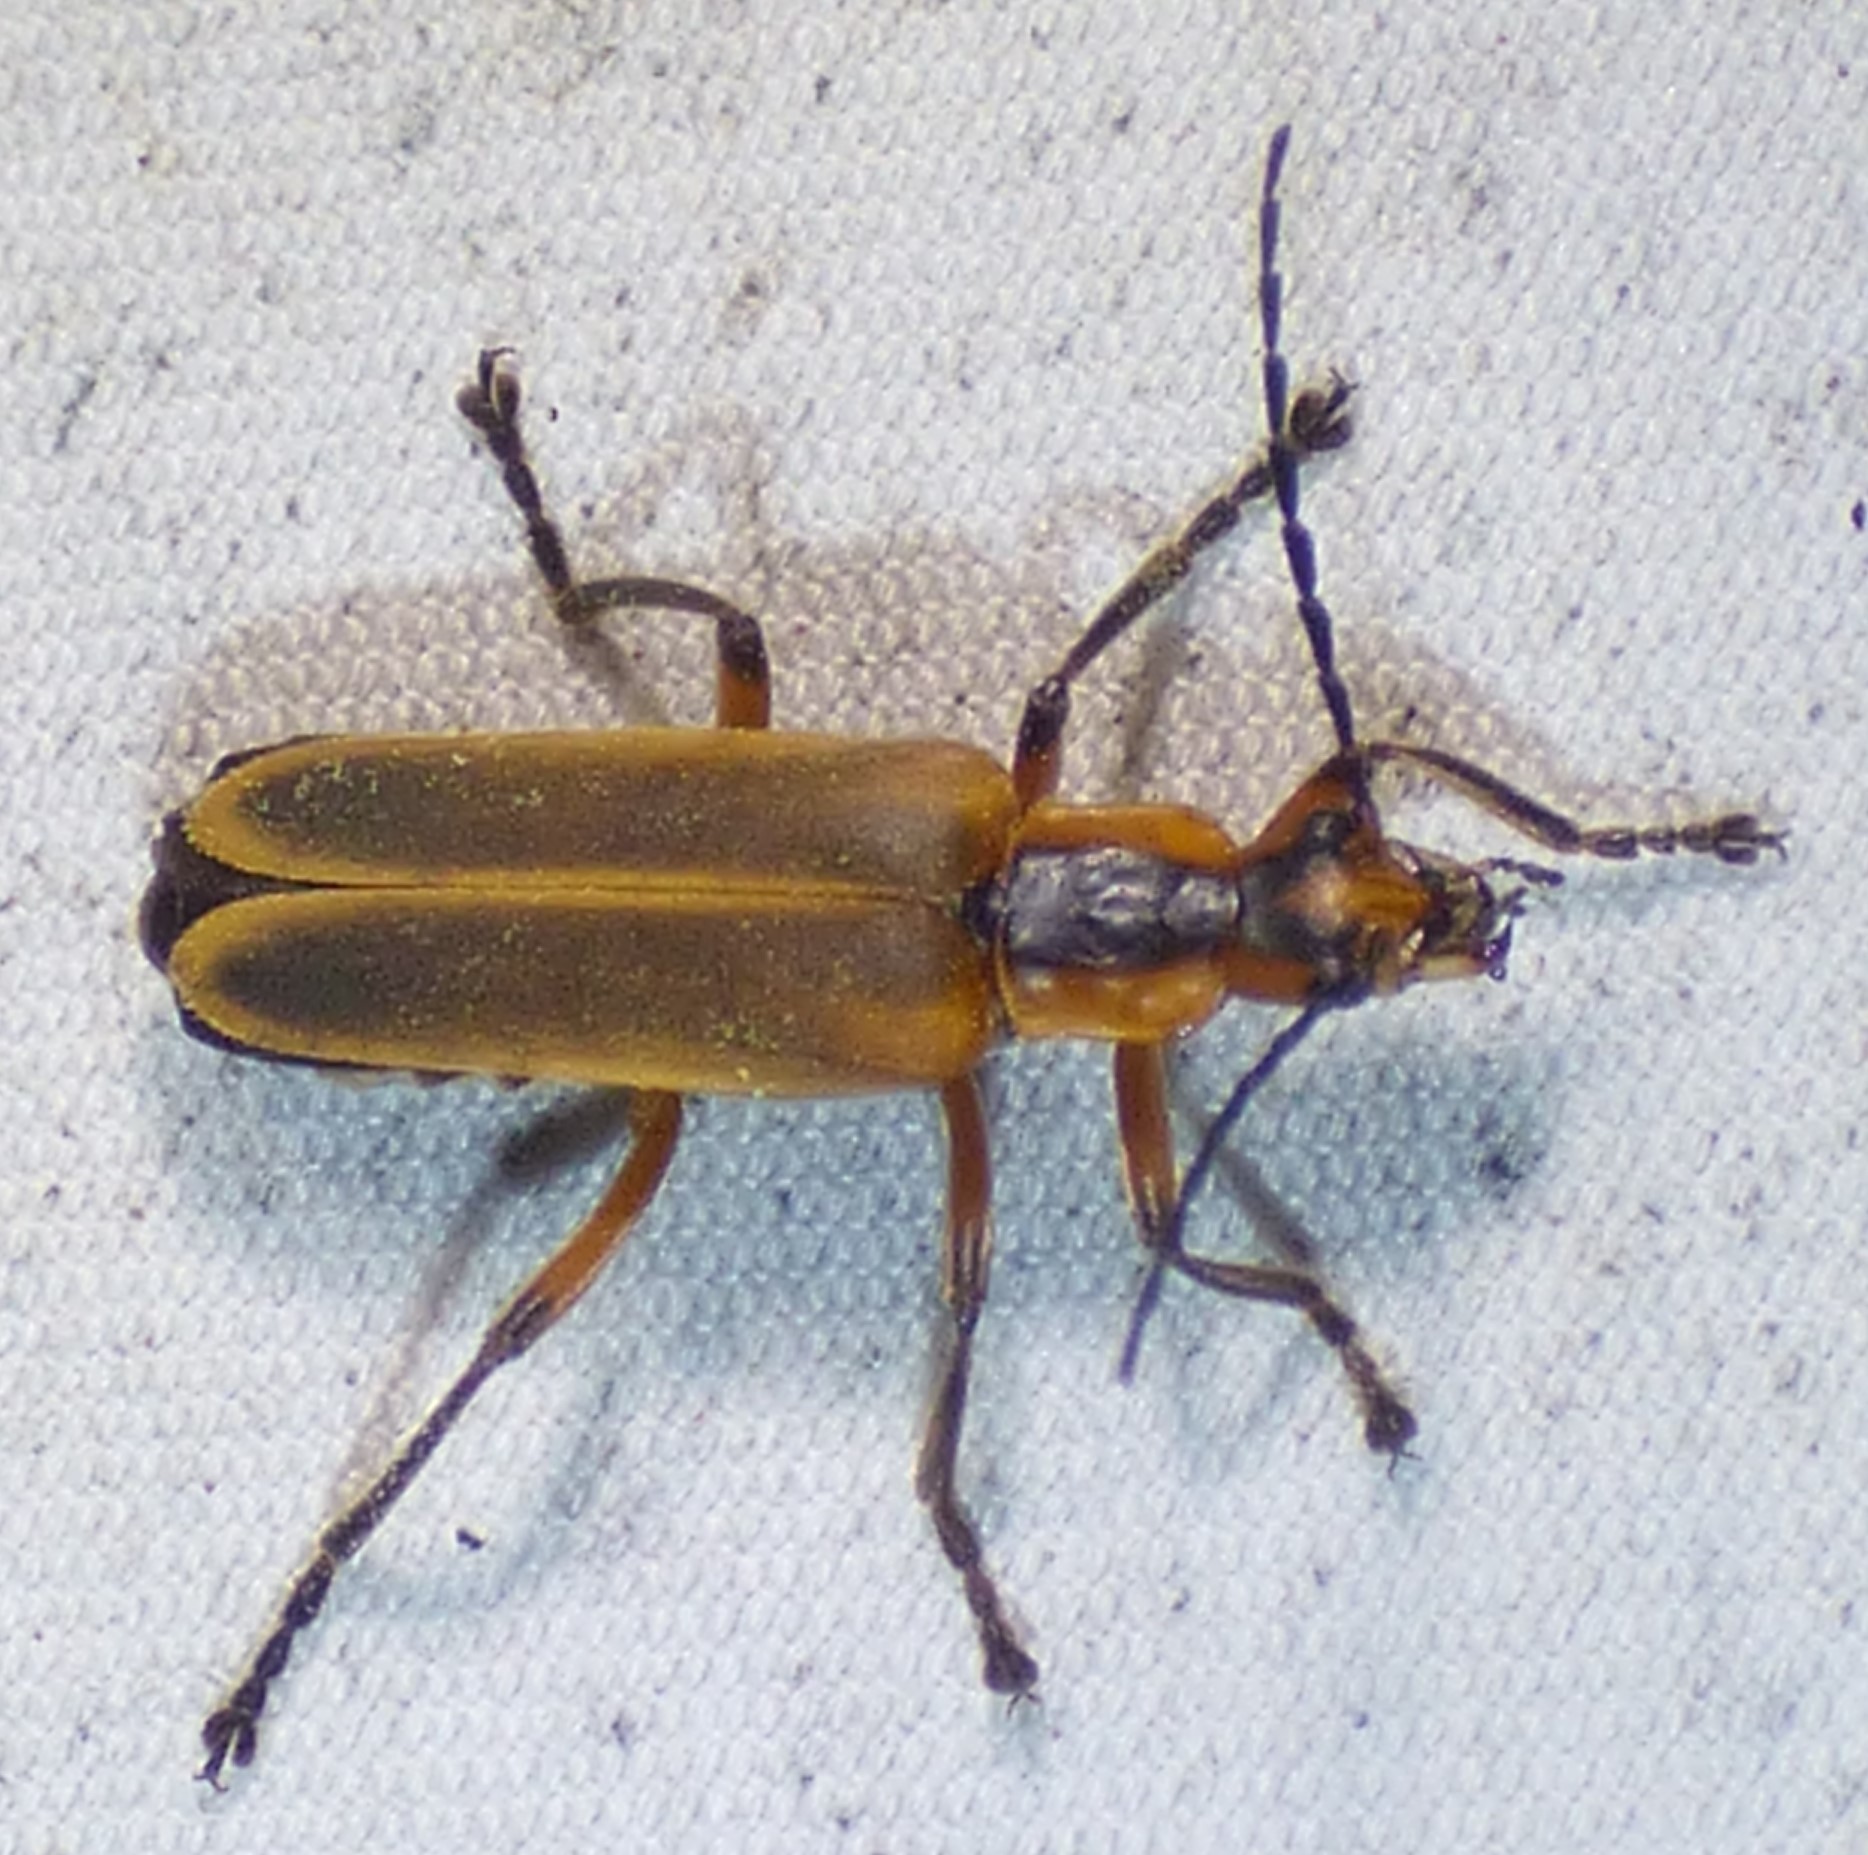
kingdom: Animalia
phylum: Arthropoda
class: Insecta
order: Coleoptera
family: Cantharidae
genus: Chauliognathus
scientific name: Chauliognathus marginatus
